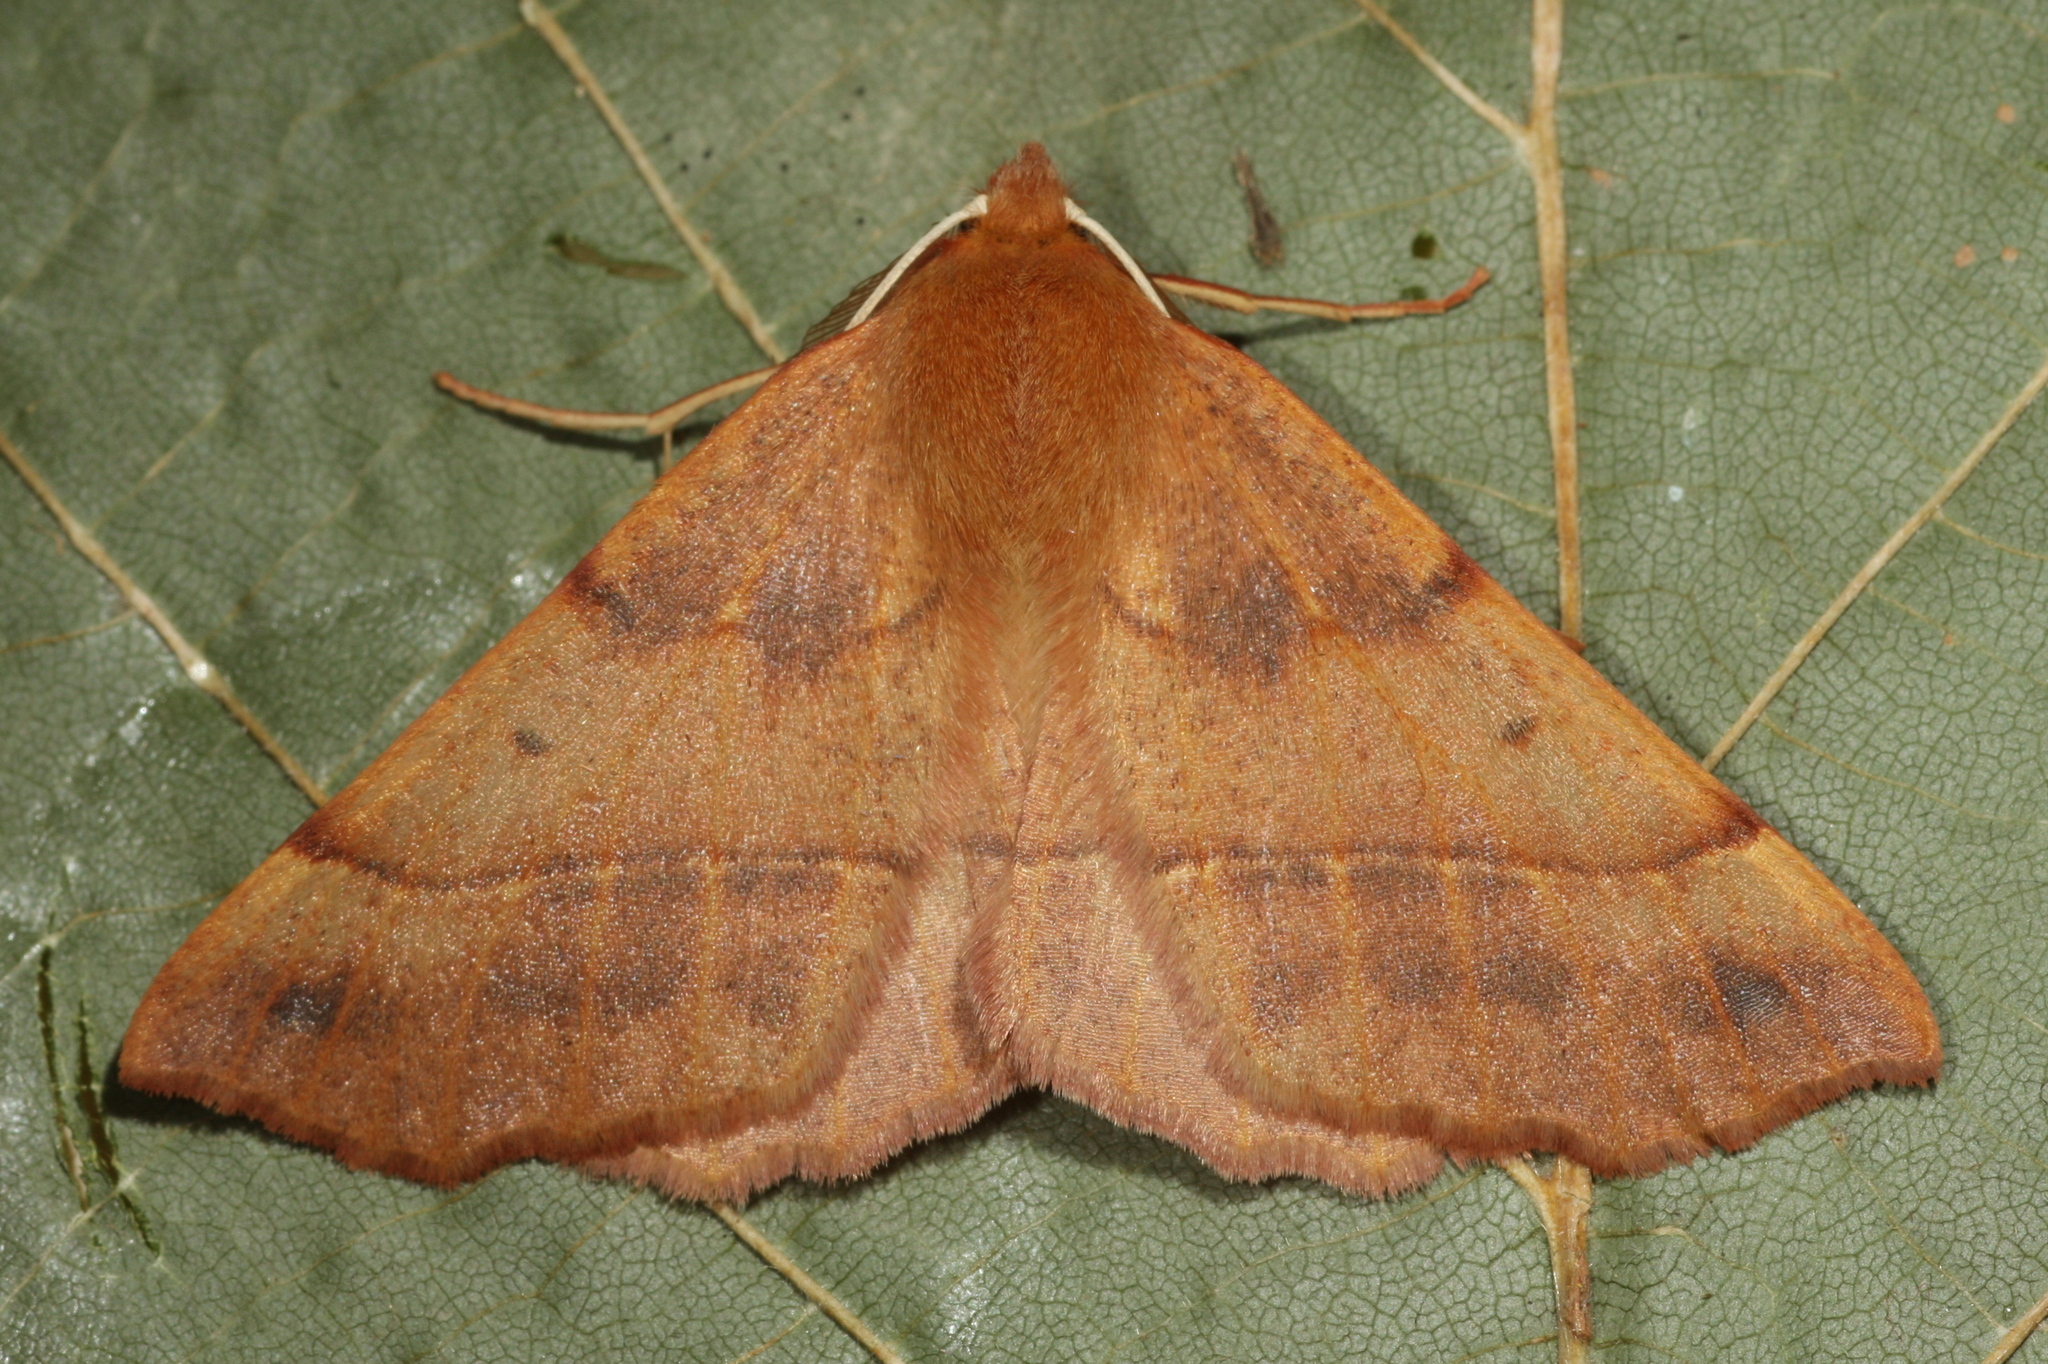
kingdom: Animalia
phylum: Arthropoda
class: Insecta
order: Lepidoptera
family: Geometridae
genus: Colotois
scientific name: Colotois pennaria
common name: Feathered thorn
